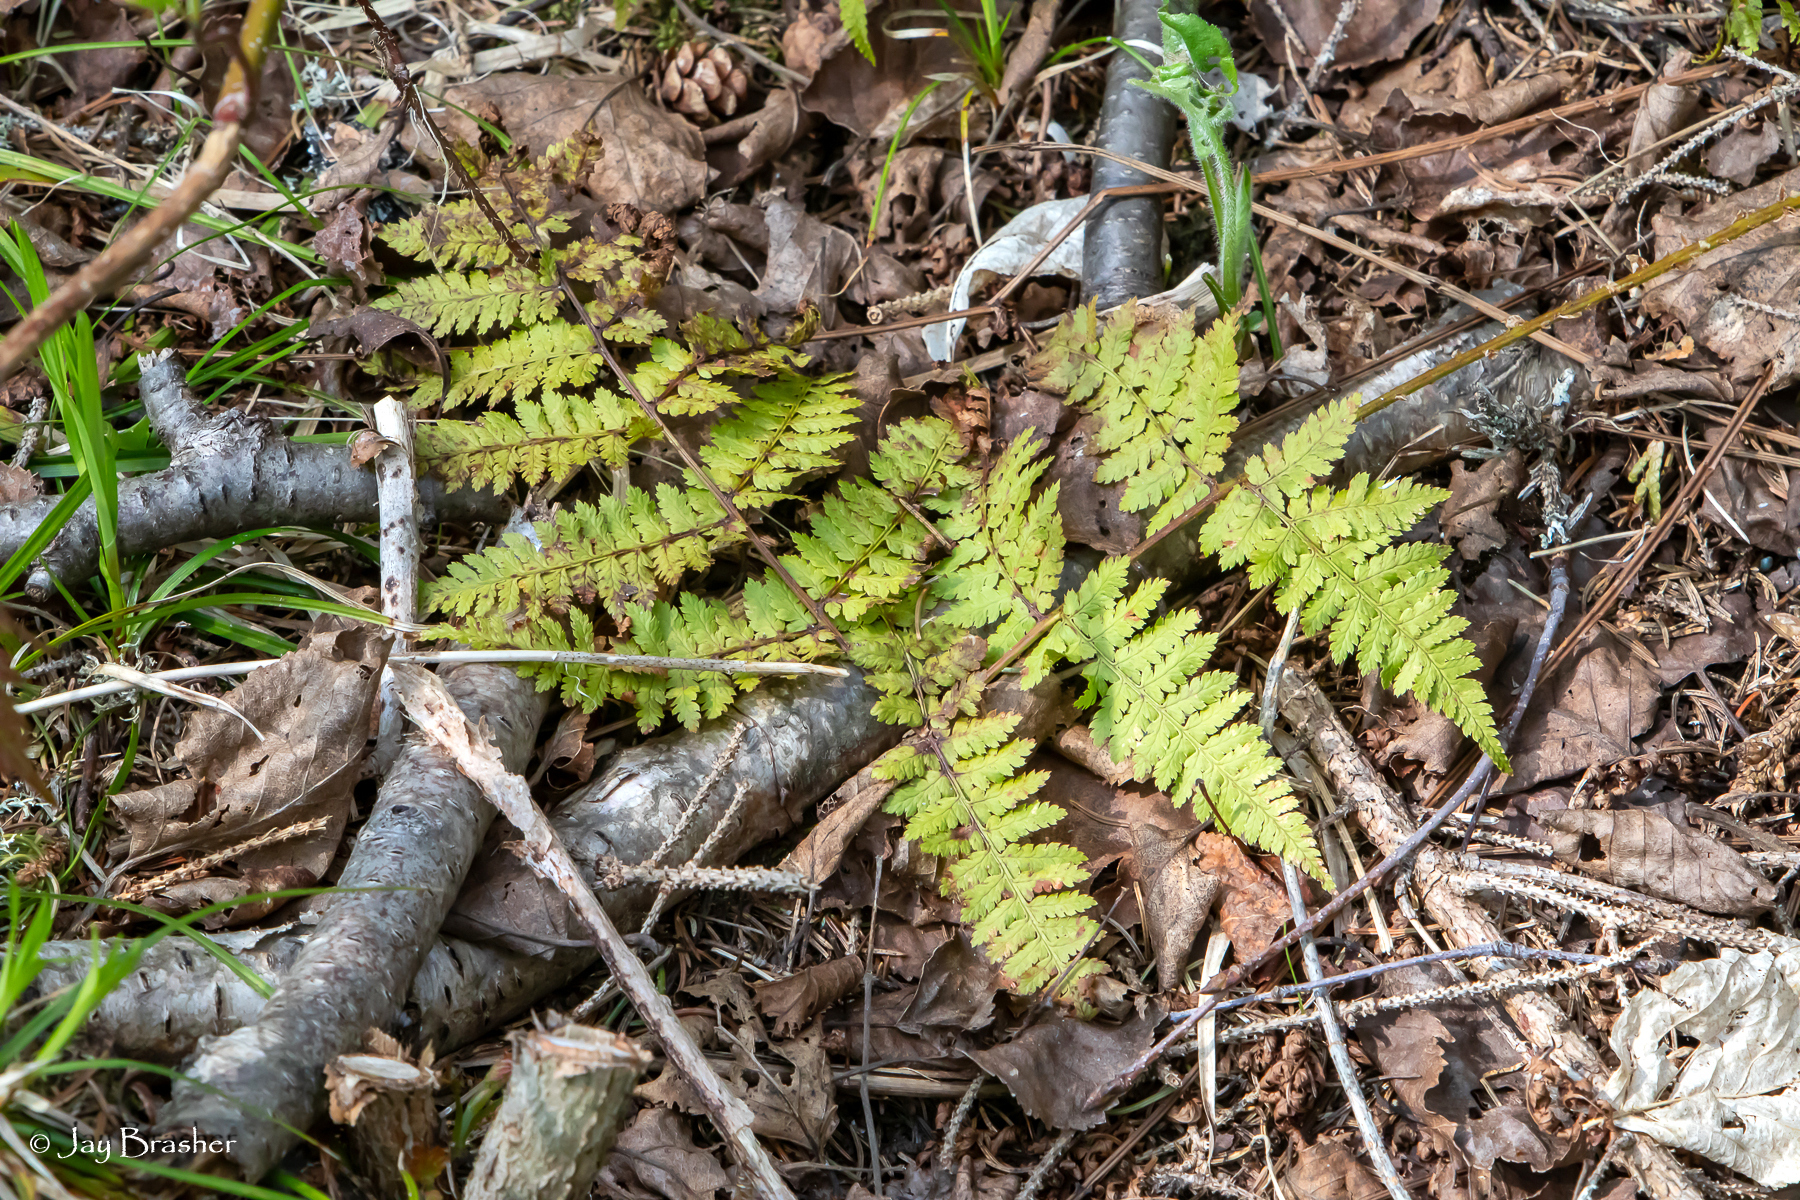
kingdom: Plantae
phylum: Tracheophyta
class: Polypodiopsida
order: Polypodiales
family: Dryopteridaceae
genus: Dryopteris
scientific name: Dryopteris intermedia
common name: Evergreen wood fern
